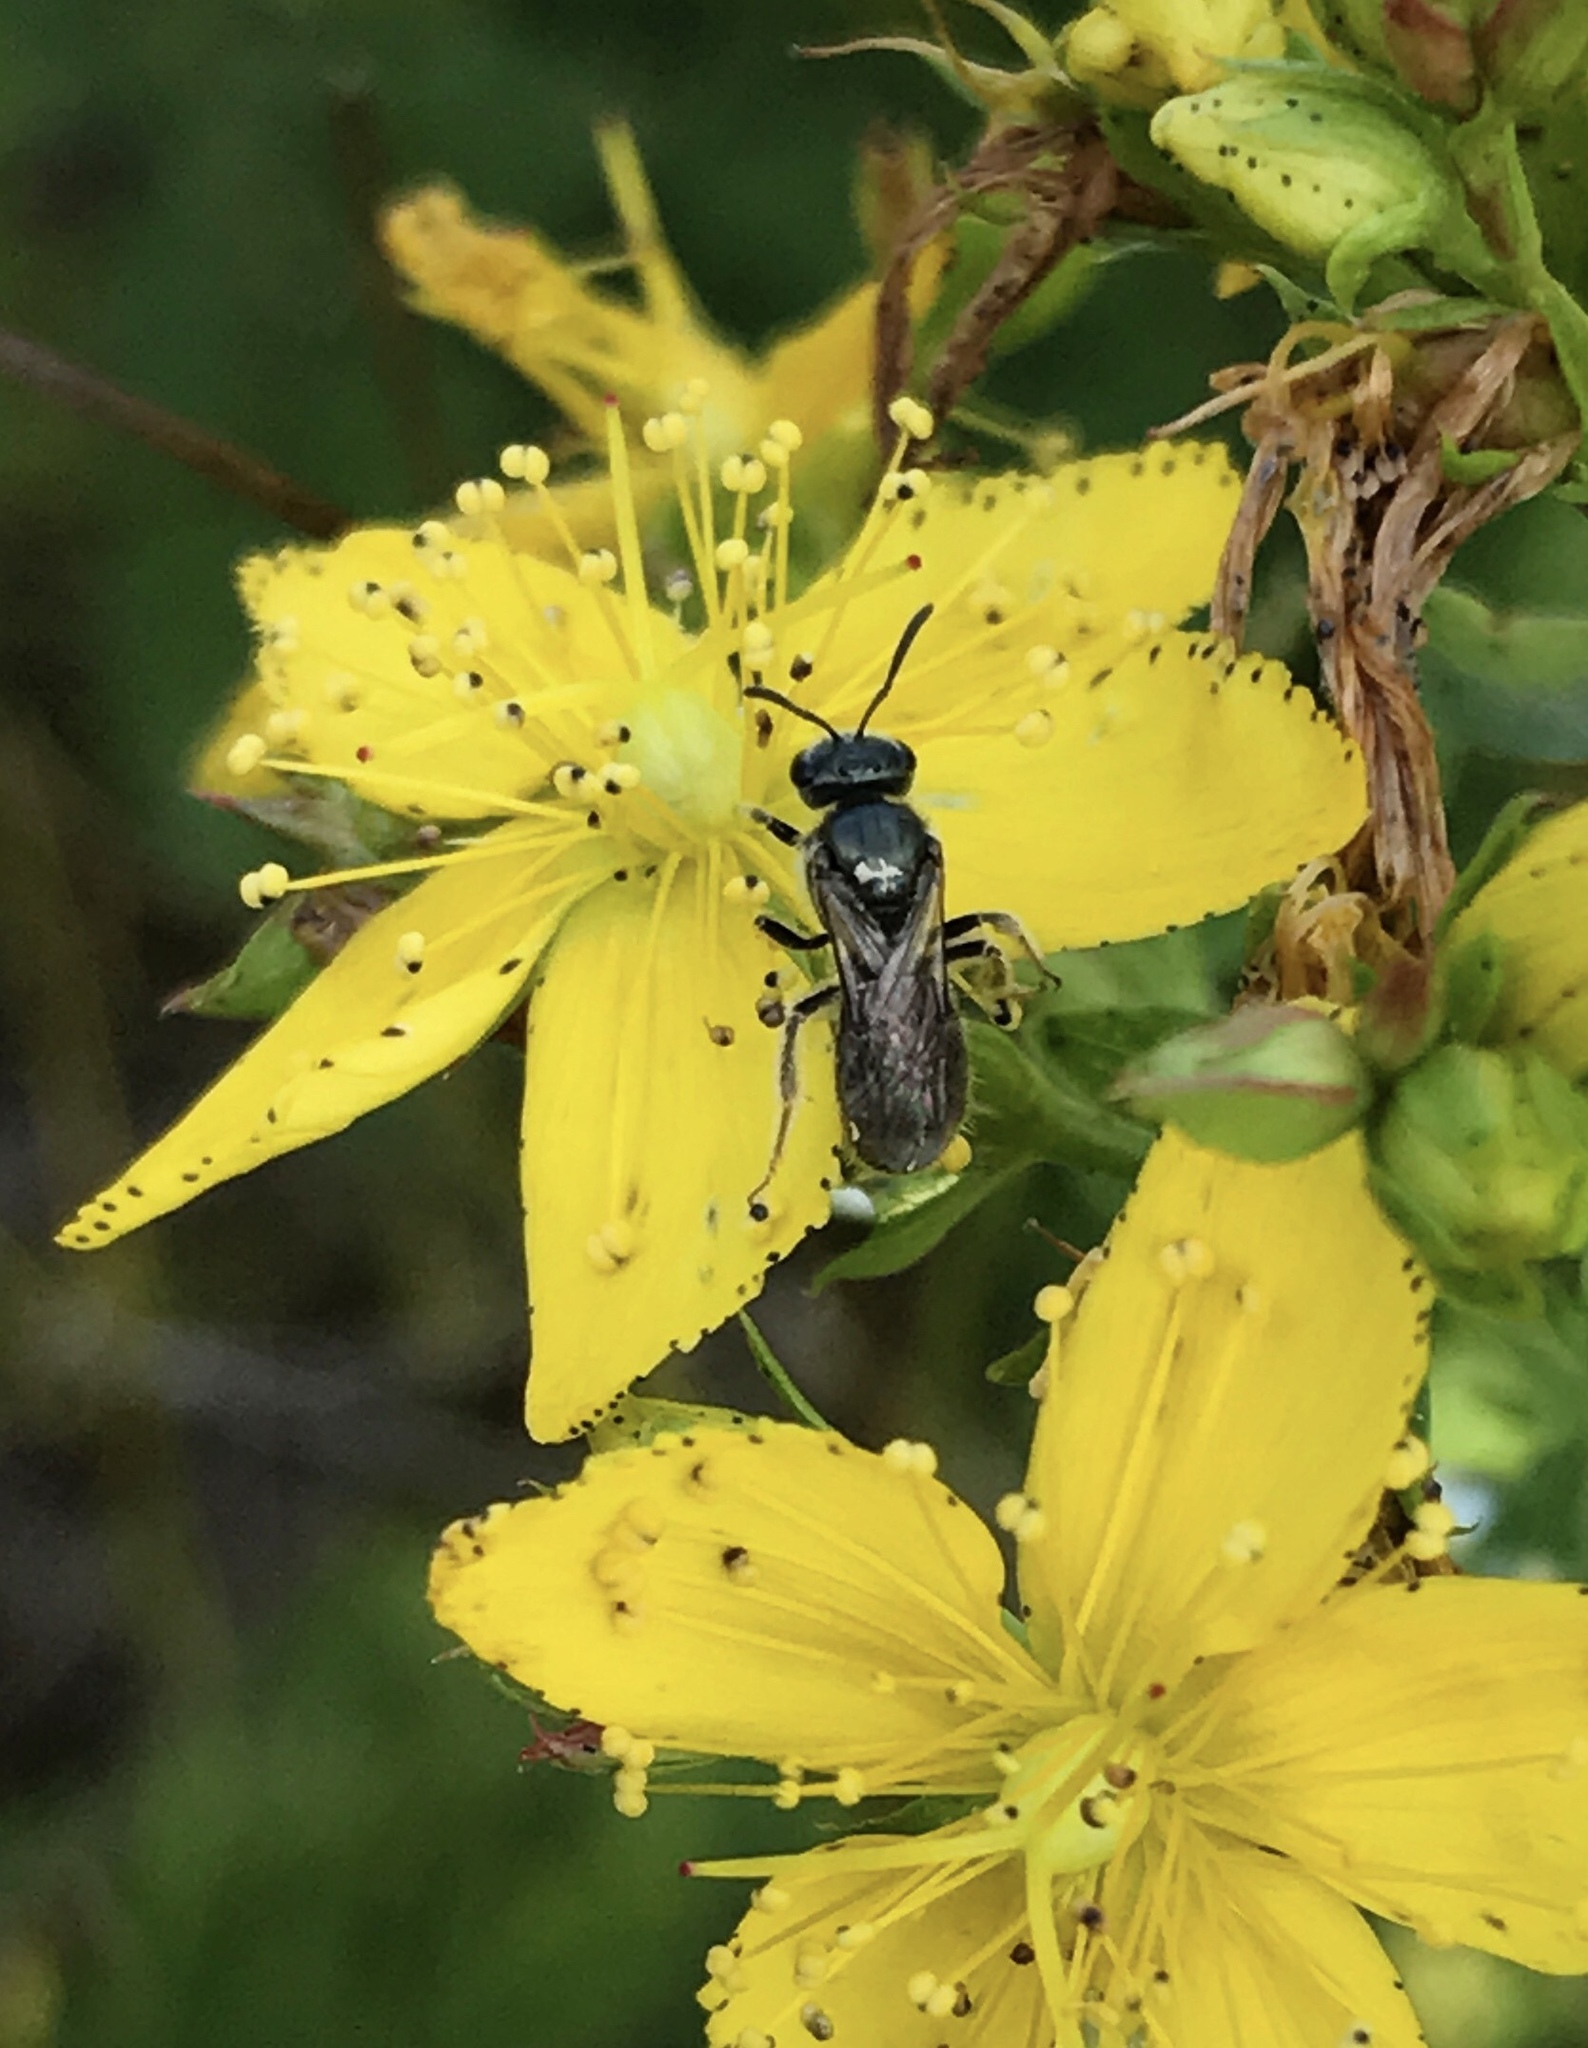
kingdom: Animalia
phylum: Arthropoda
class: Insecta
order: Hymenoptera
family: Halictidae
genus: Dialictus
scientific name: Dialictus
